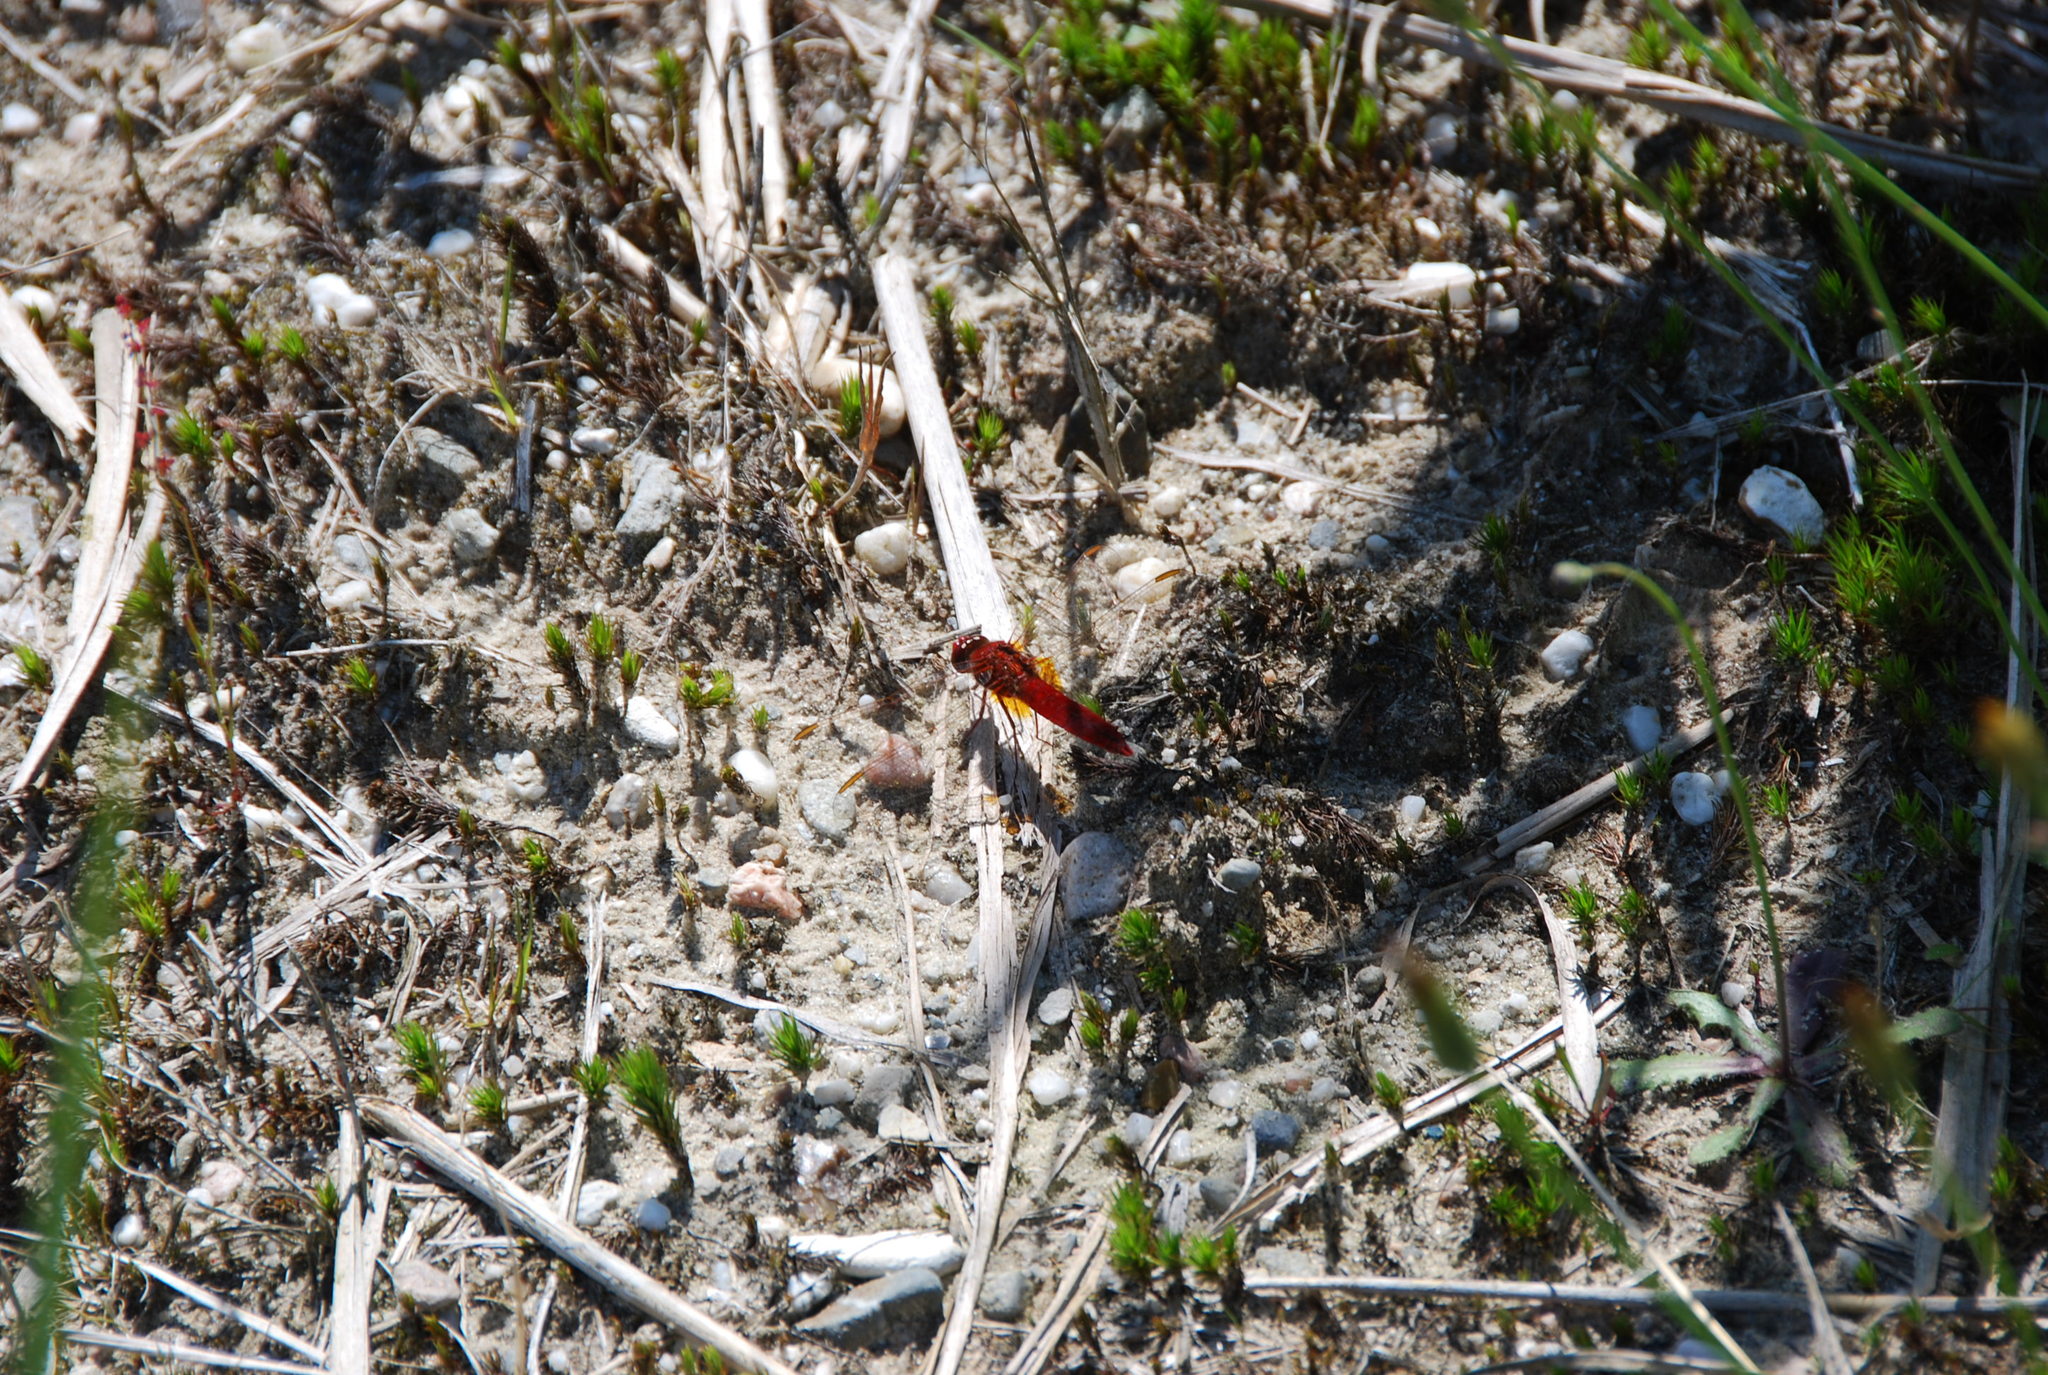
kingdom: Animalia
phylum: Arthropoda
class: Insecta
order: Odonata
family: Libellulidae
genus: Crocothemis
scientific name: Crocothemis erythraea
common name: Scarlet dragonfly
